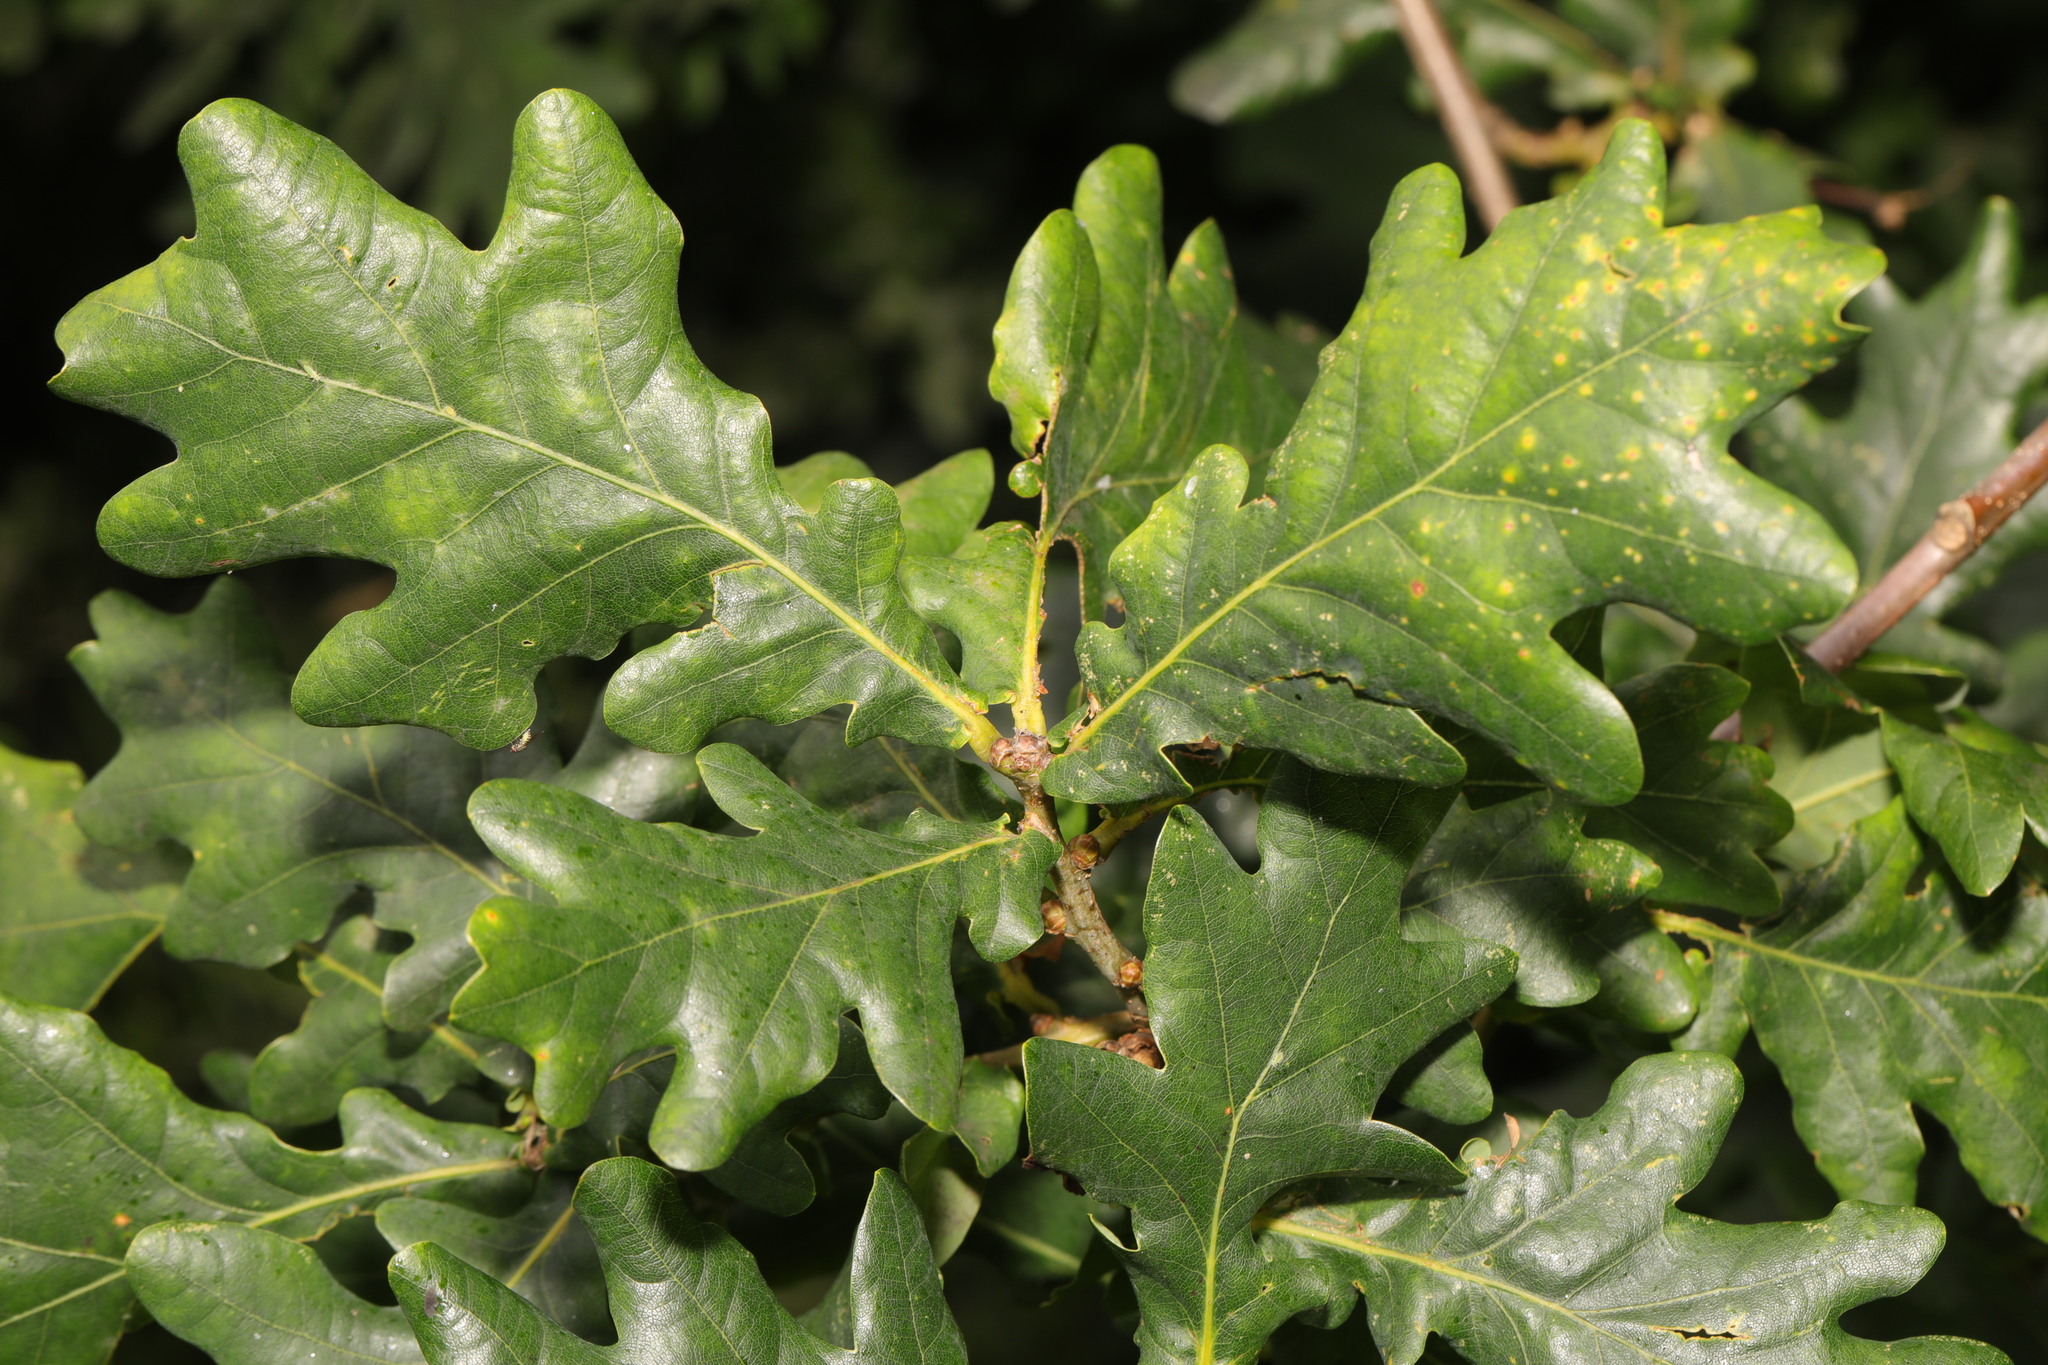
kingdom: Plantae
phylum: Tracheophyta
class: Magnoliopsida
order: Fagales
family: Fagaceae
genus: Quercus
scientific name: Quercus robur
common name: Pedunculate oak
